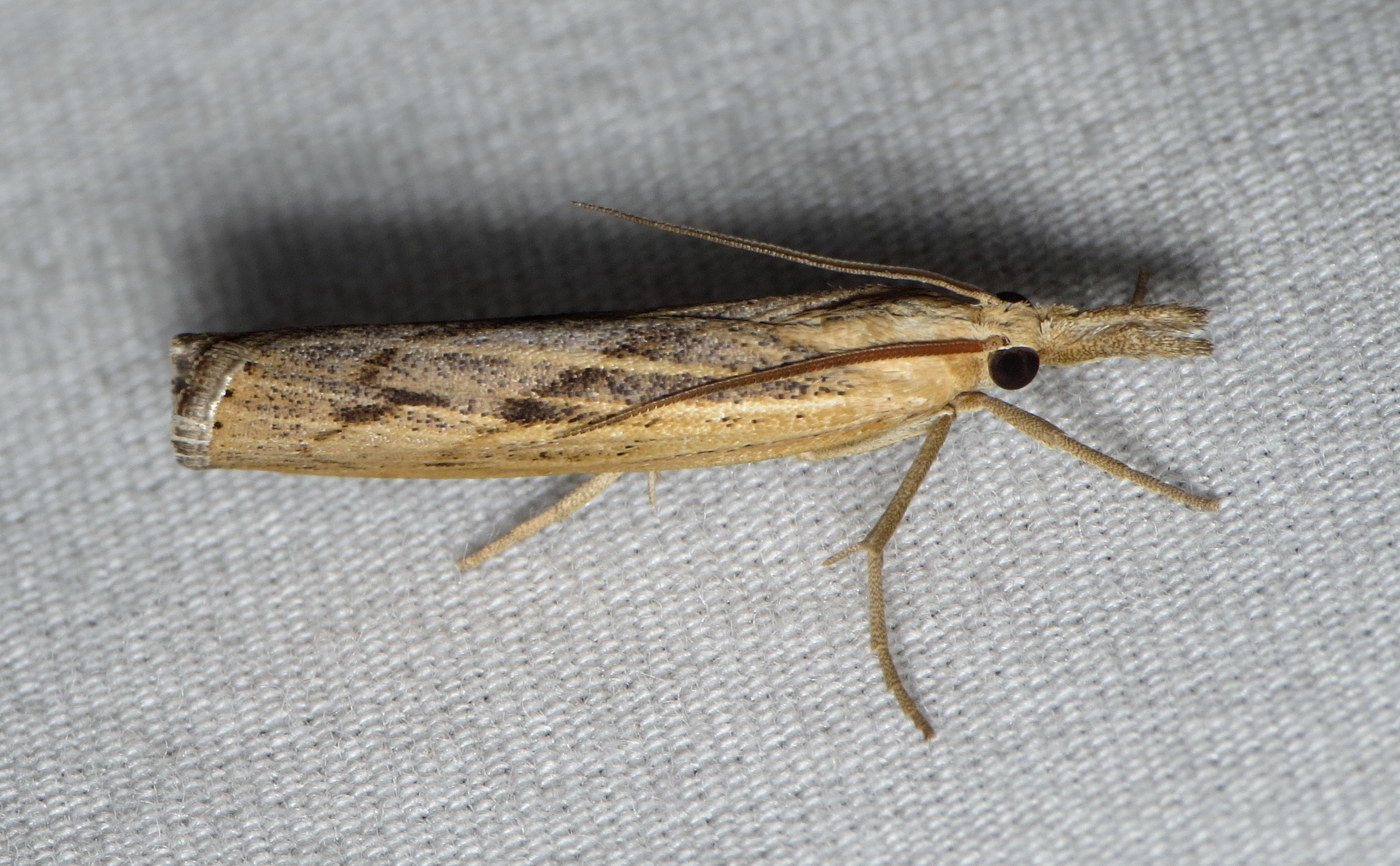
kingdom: Animalia
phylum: Arthropoda
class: Insecta
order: Lepidoptera
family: Crambidae
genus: Pediasia
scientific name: Pediasia trisecta
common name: Sod webworm moth
